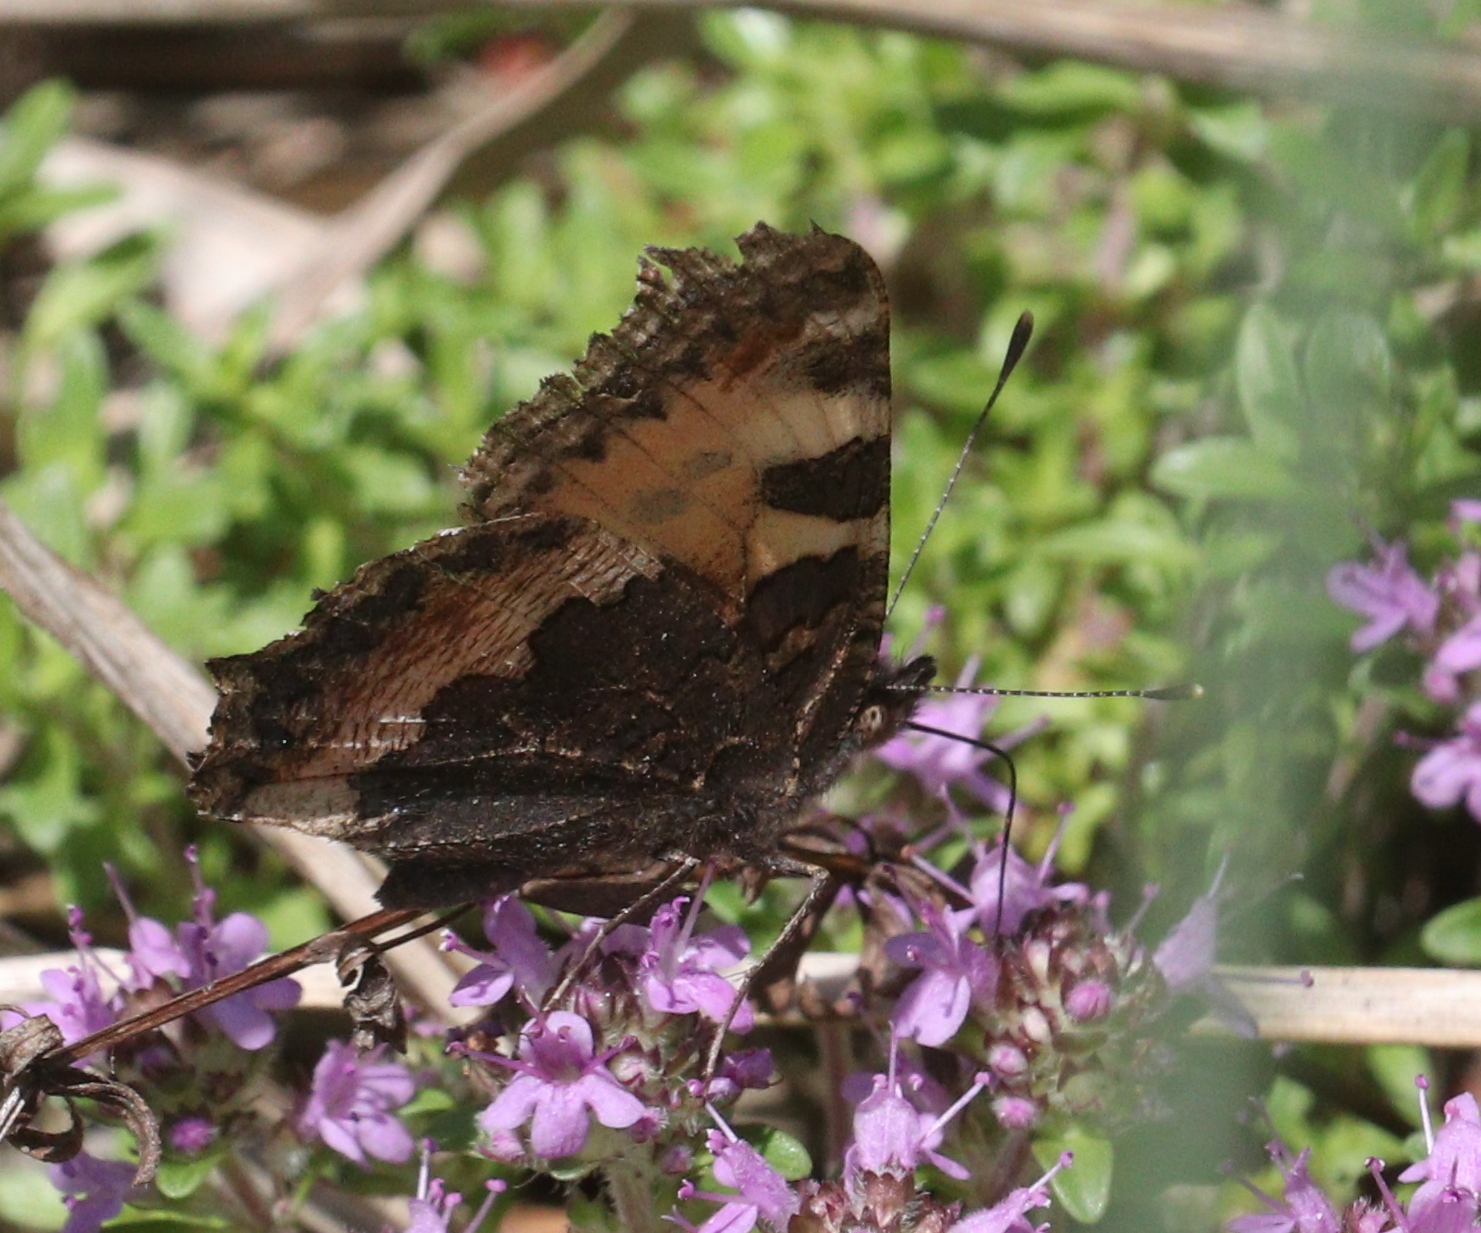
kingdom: Animalia
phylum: Arthropoda
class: Insecta
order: Lepidoptera
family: Nymphalidae
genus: Aglais
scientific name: Aglais urticae
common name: Small tortoiseshell
